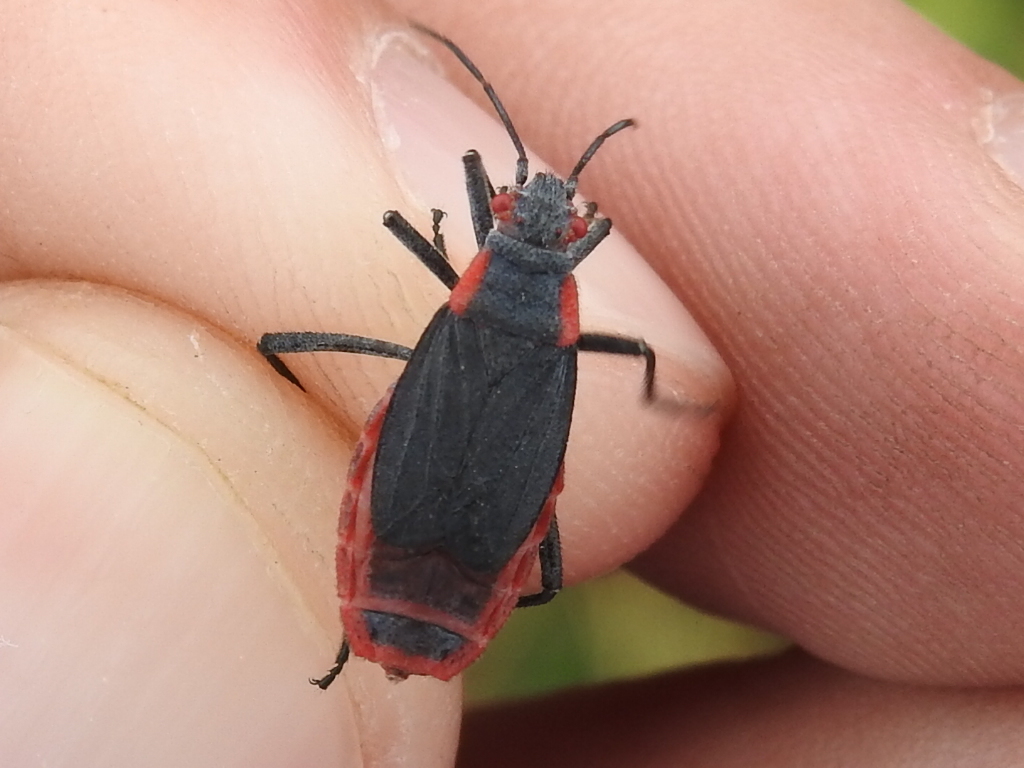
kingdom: Animalia
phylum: Arthropoda
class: Insecta
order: Hemiptera
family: Rhopalidae
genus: Jadera
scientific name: Jadera haematoloma
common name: Red-shouldered bug
